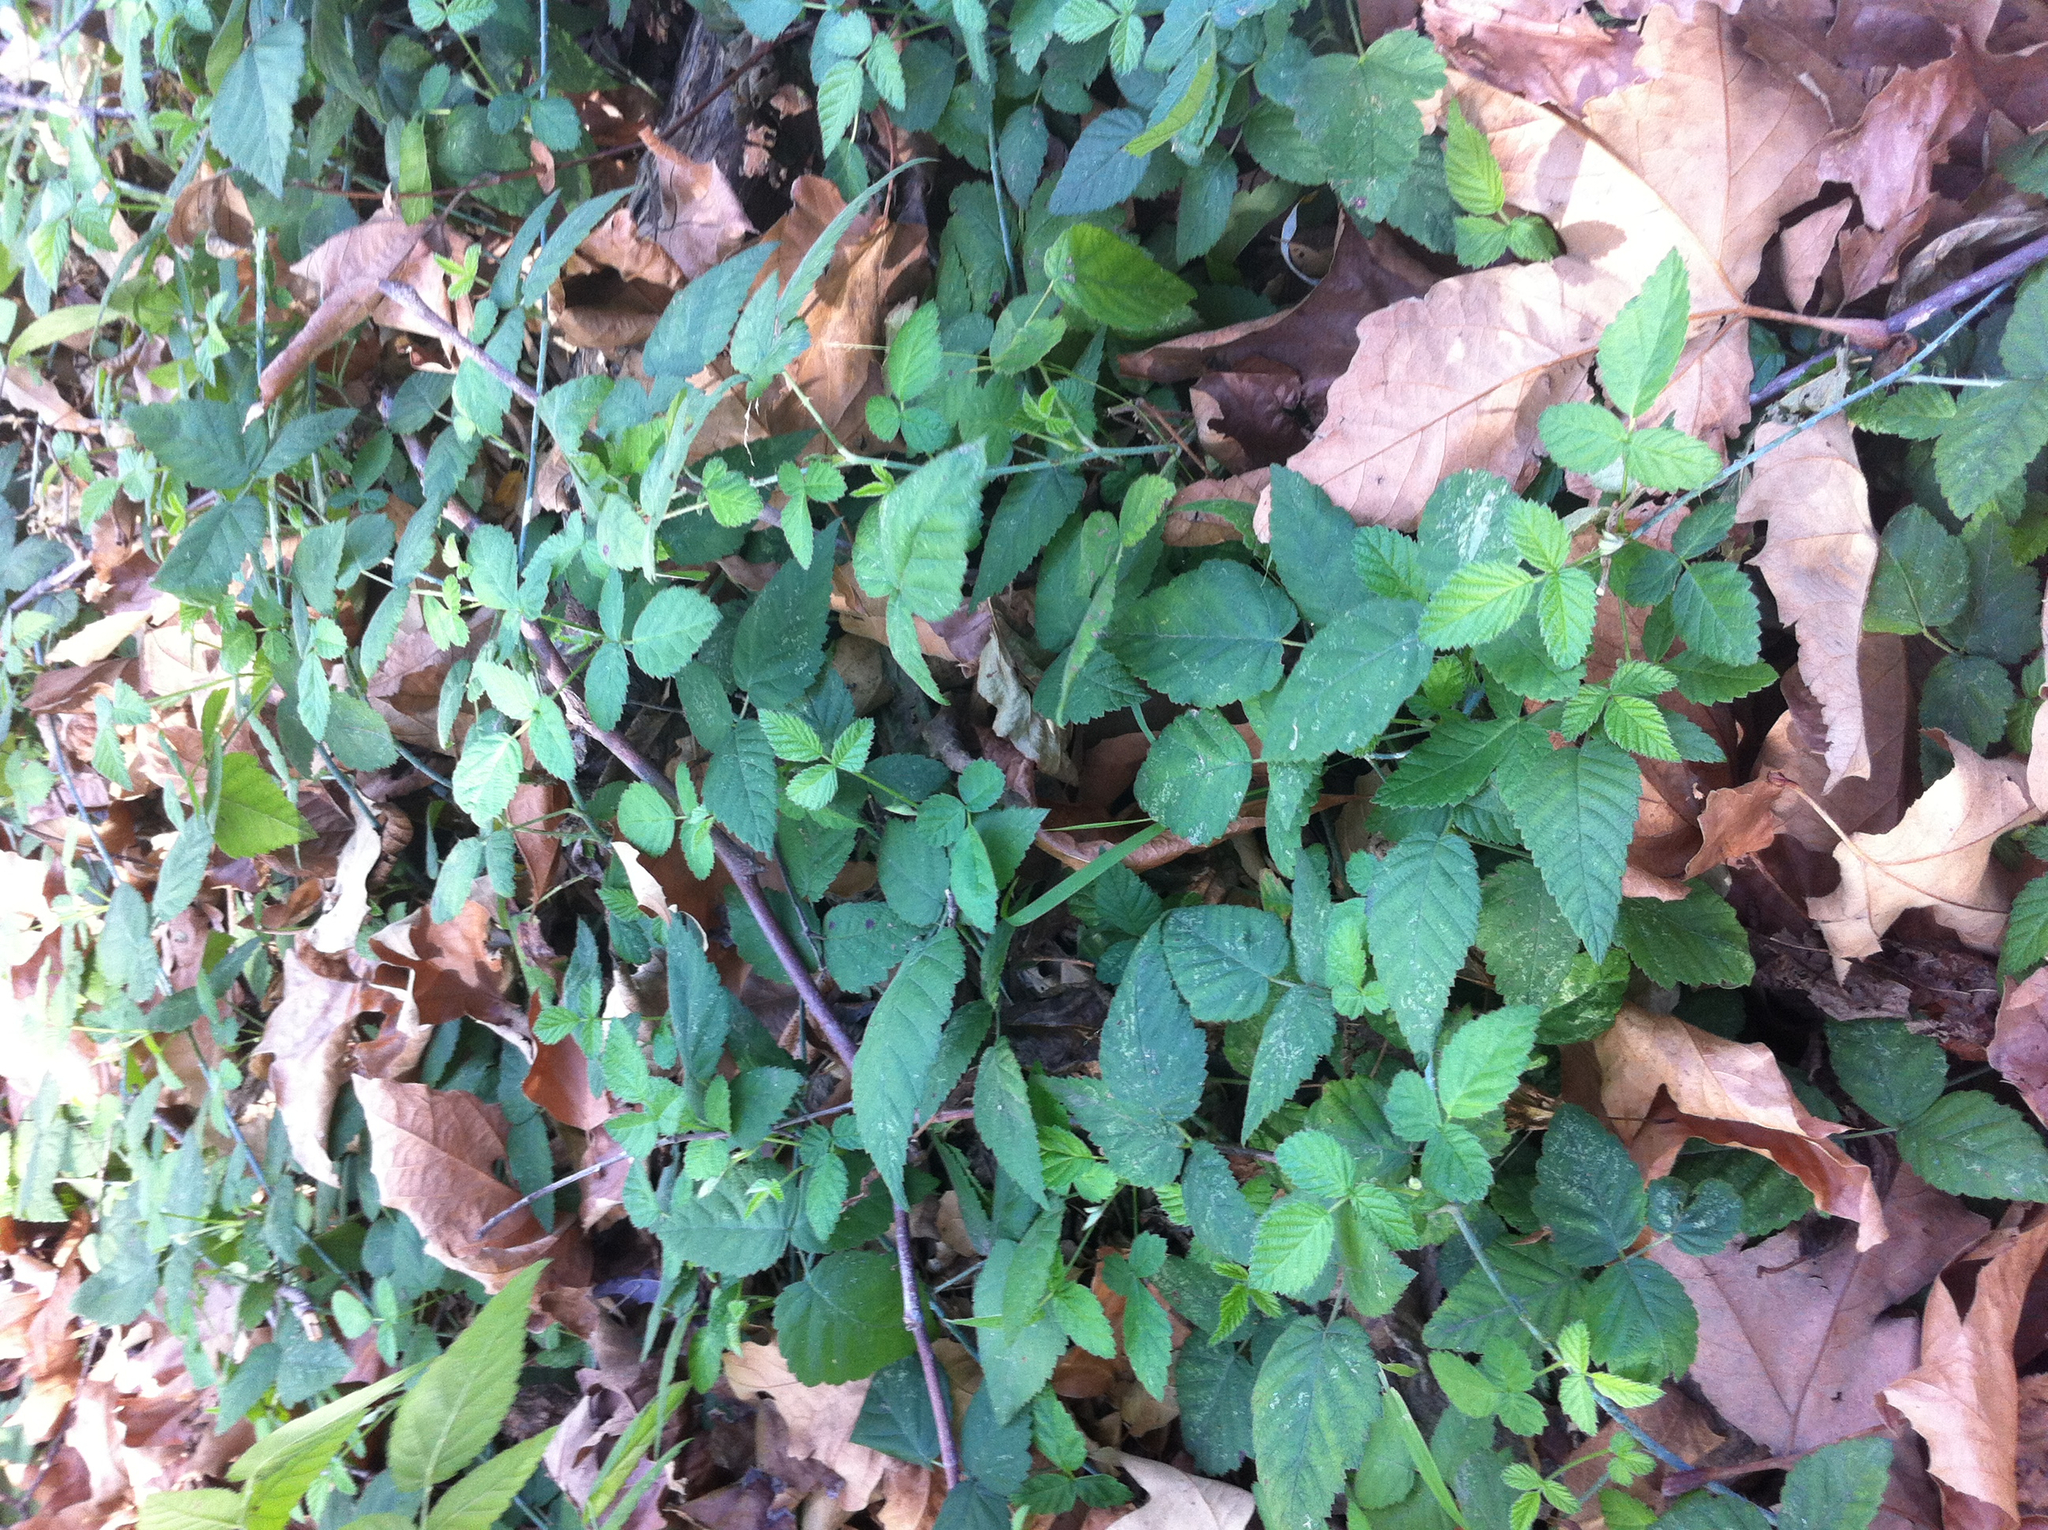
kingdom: Plantae
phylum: Tracheophyta
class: Magnoliopsida
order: Rosales
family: Rosaceae
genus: Rubus
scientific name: Rubus ursinus
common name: Pacific blackberry
